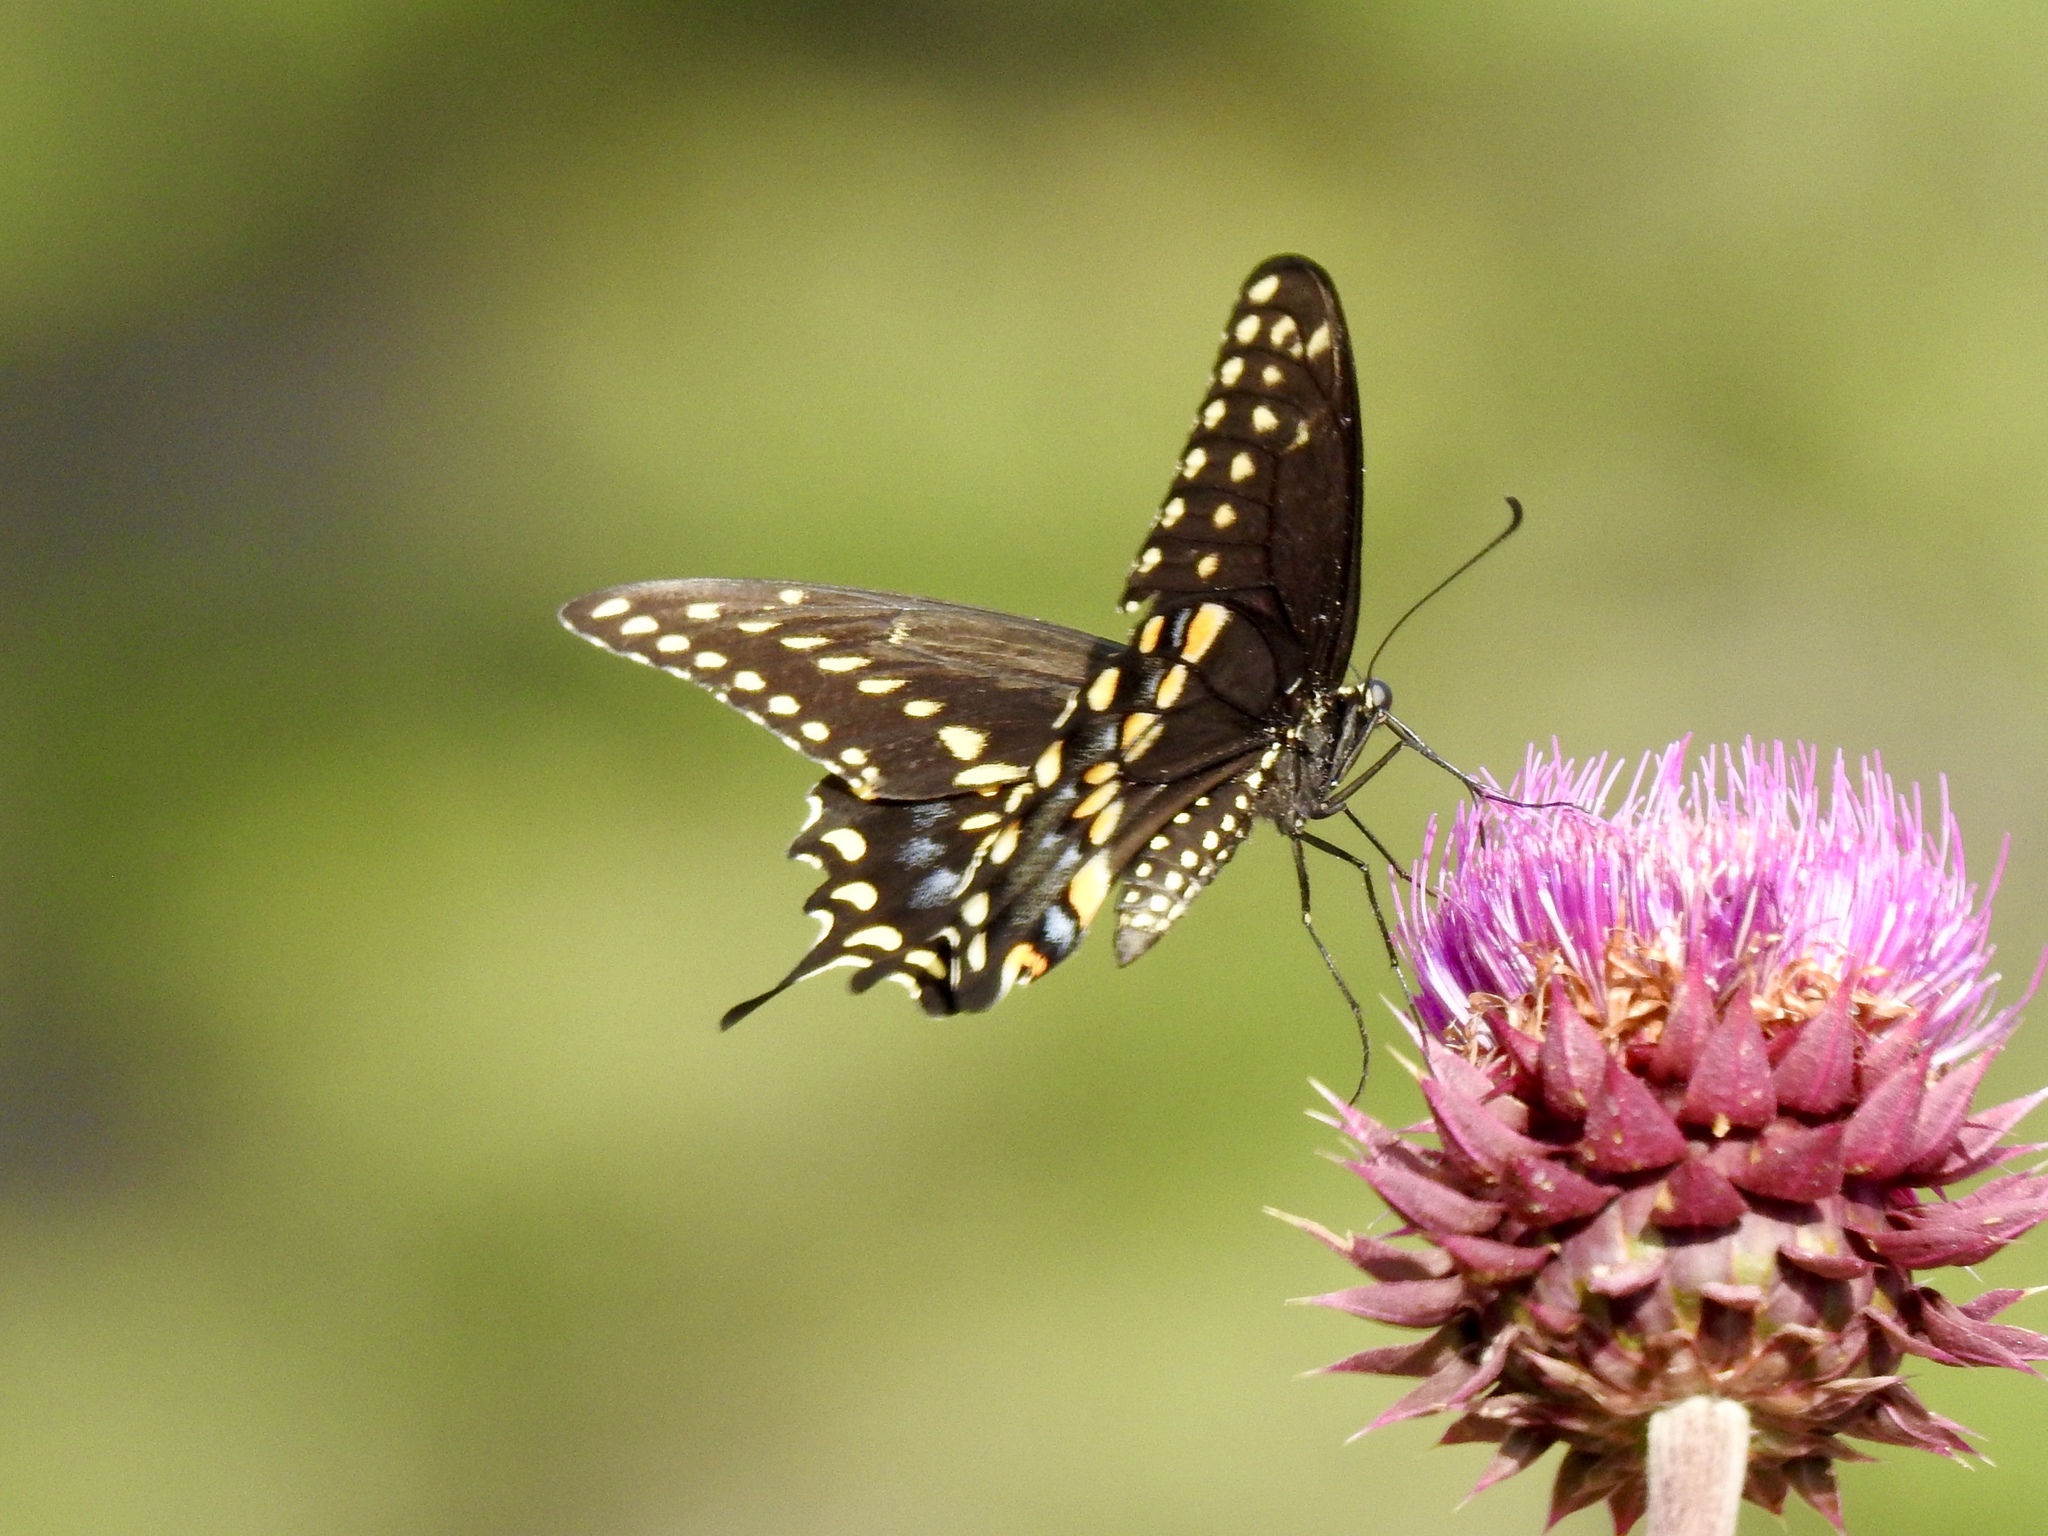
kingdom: Animalia
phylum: Arthropoda
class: Insecta
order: Lepidoptera
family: Papilionidae
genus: Papilio
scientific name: Papilio polyxenes
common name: Black swallowtail
